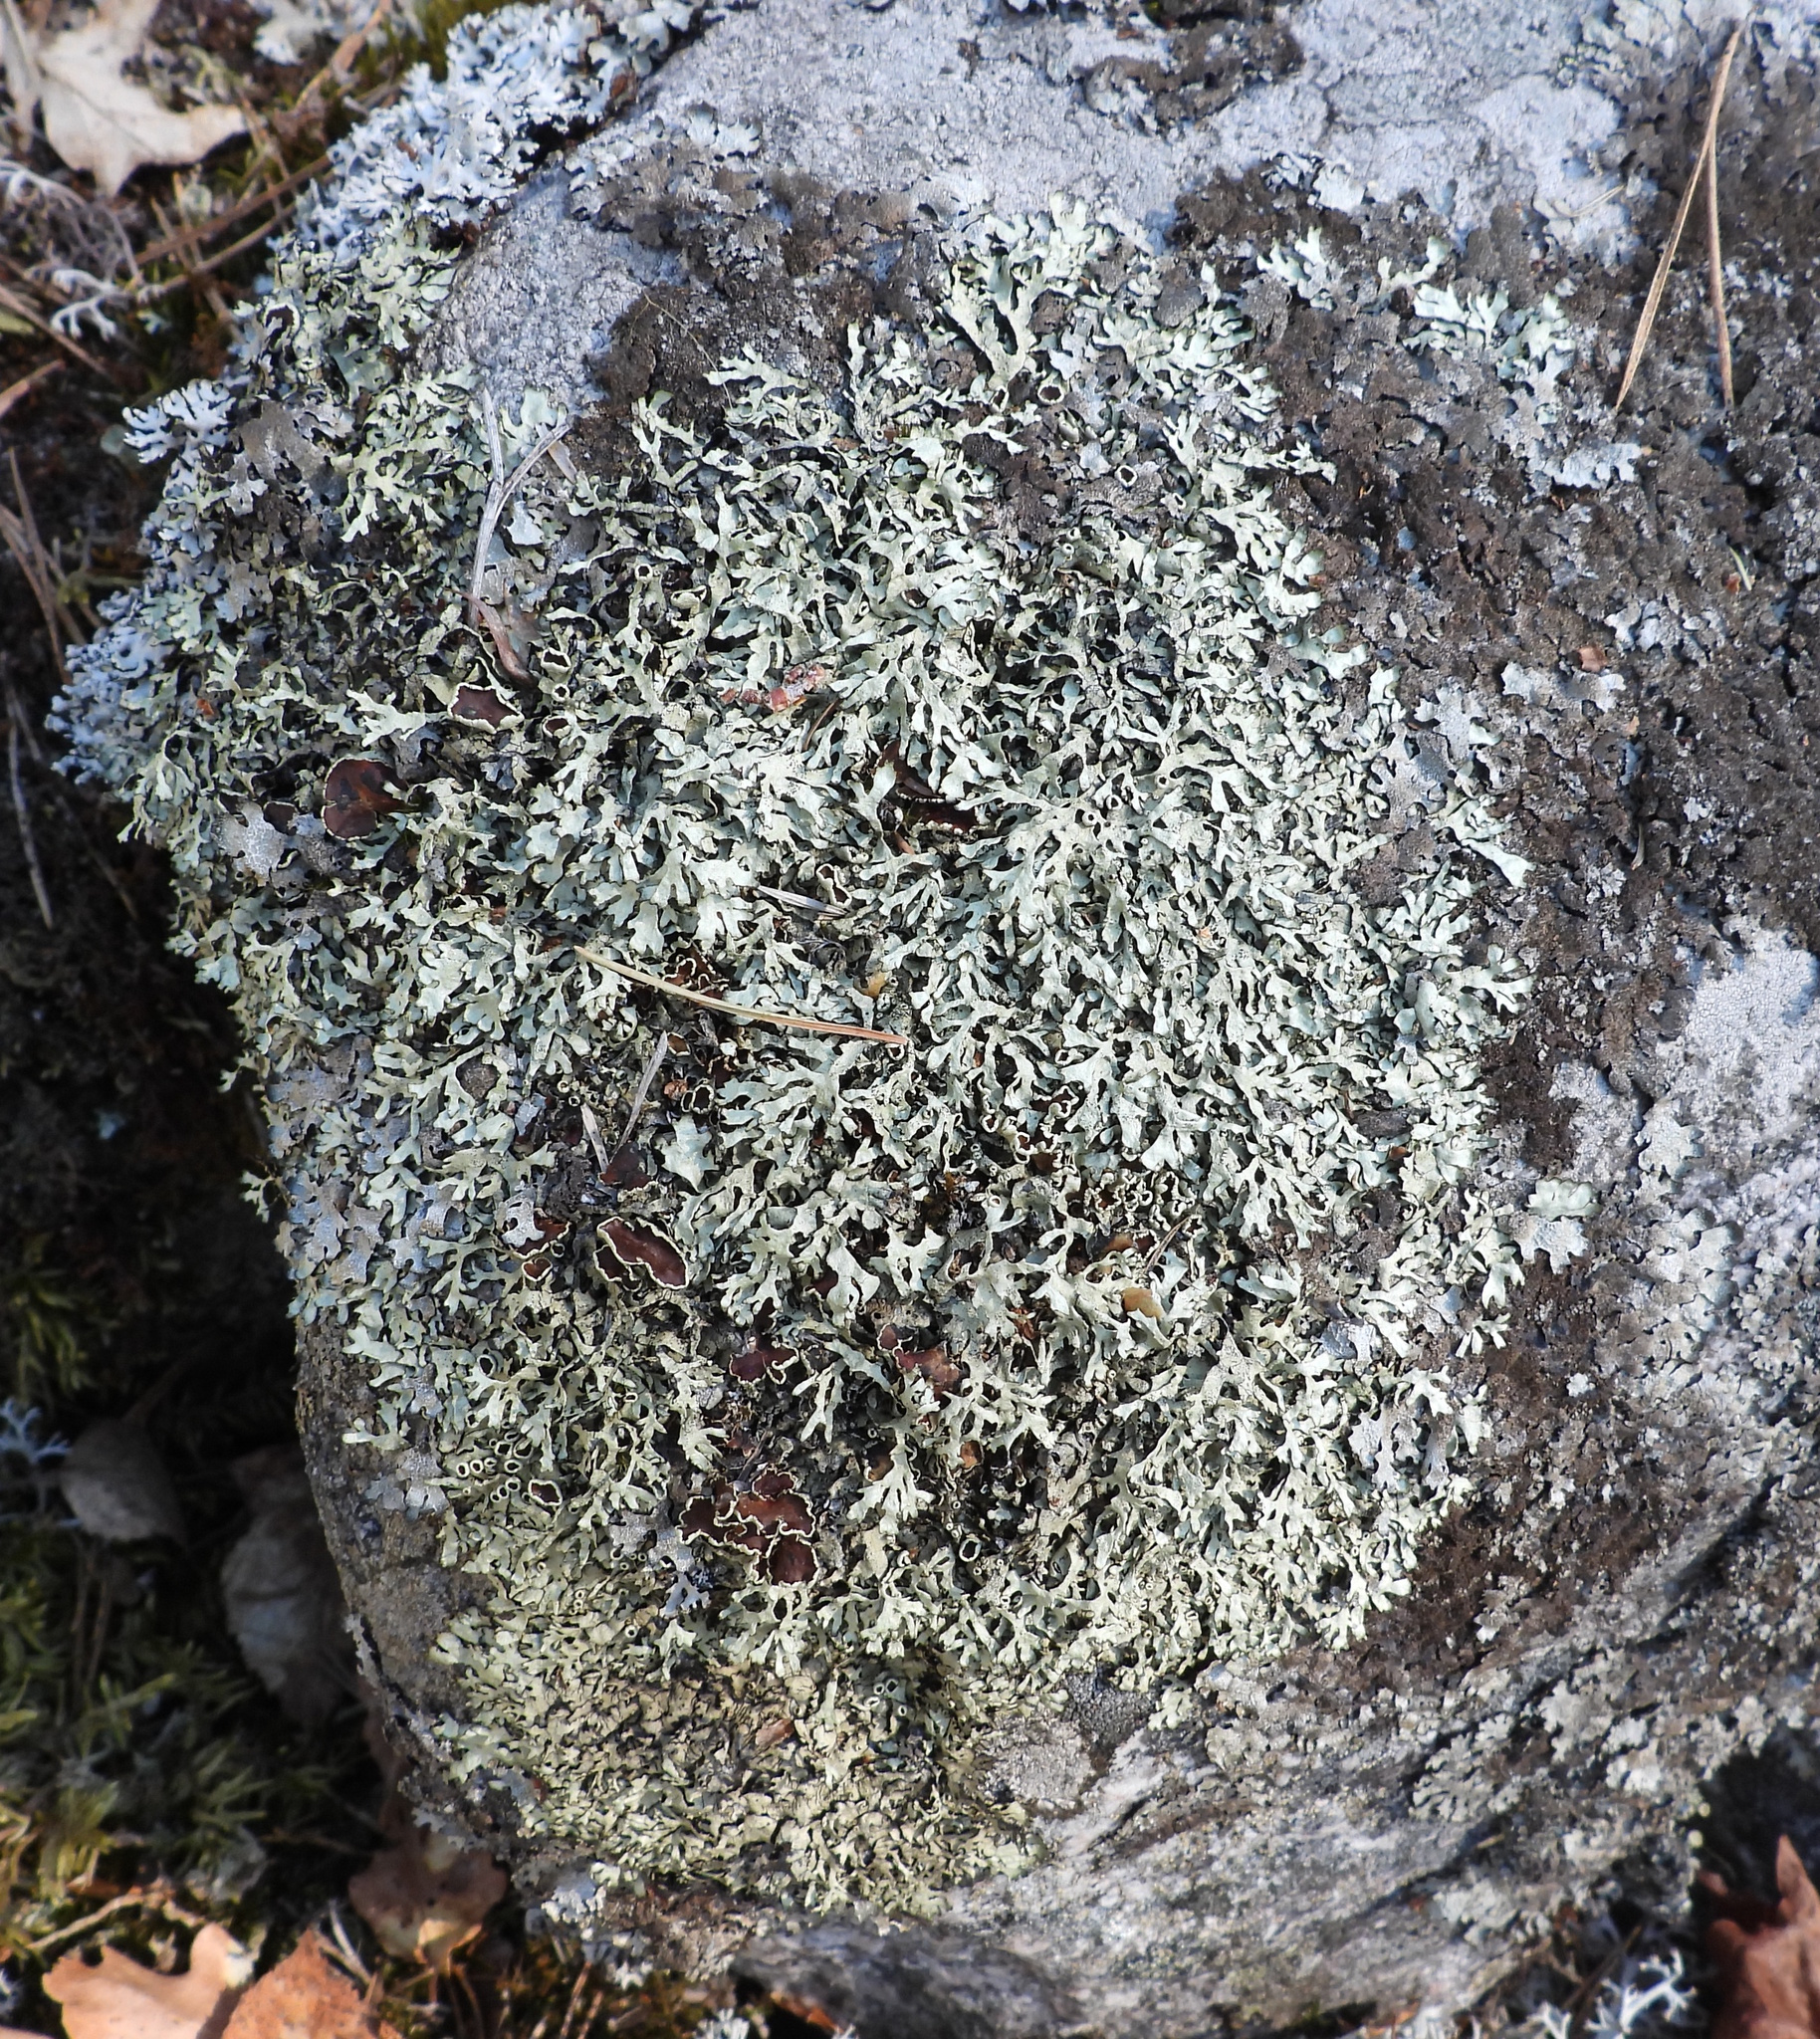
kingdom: Fungi
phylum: Ascomycota
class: Lecanoromycetes
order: Lecanorales
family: Parmeliaceae
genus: Xanthoparmelia
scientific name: Xanthoparmelia stenophylla
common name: Shingled rock shield
